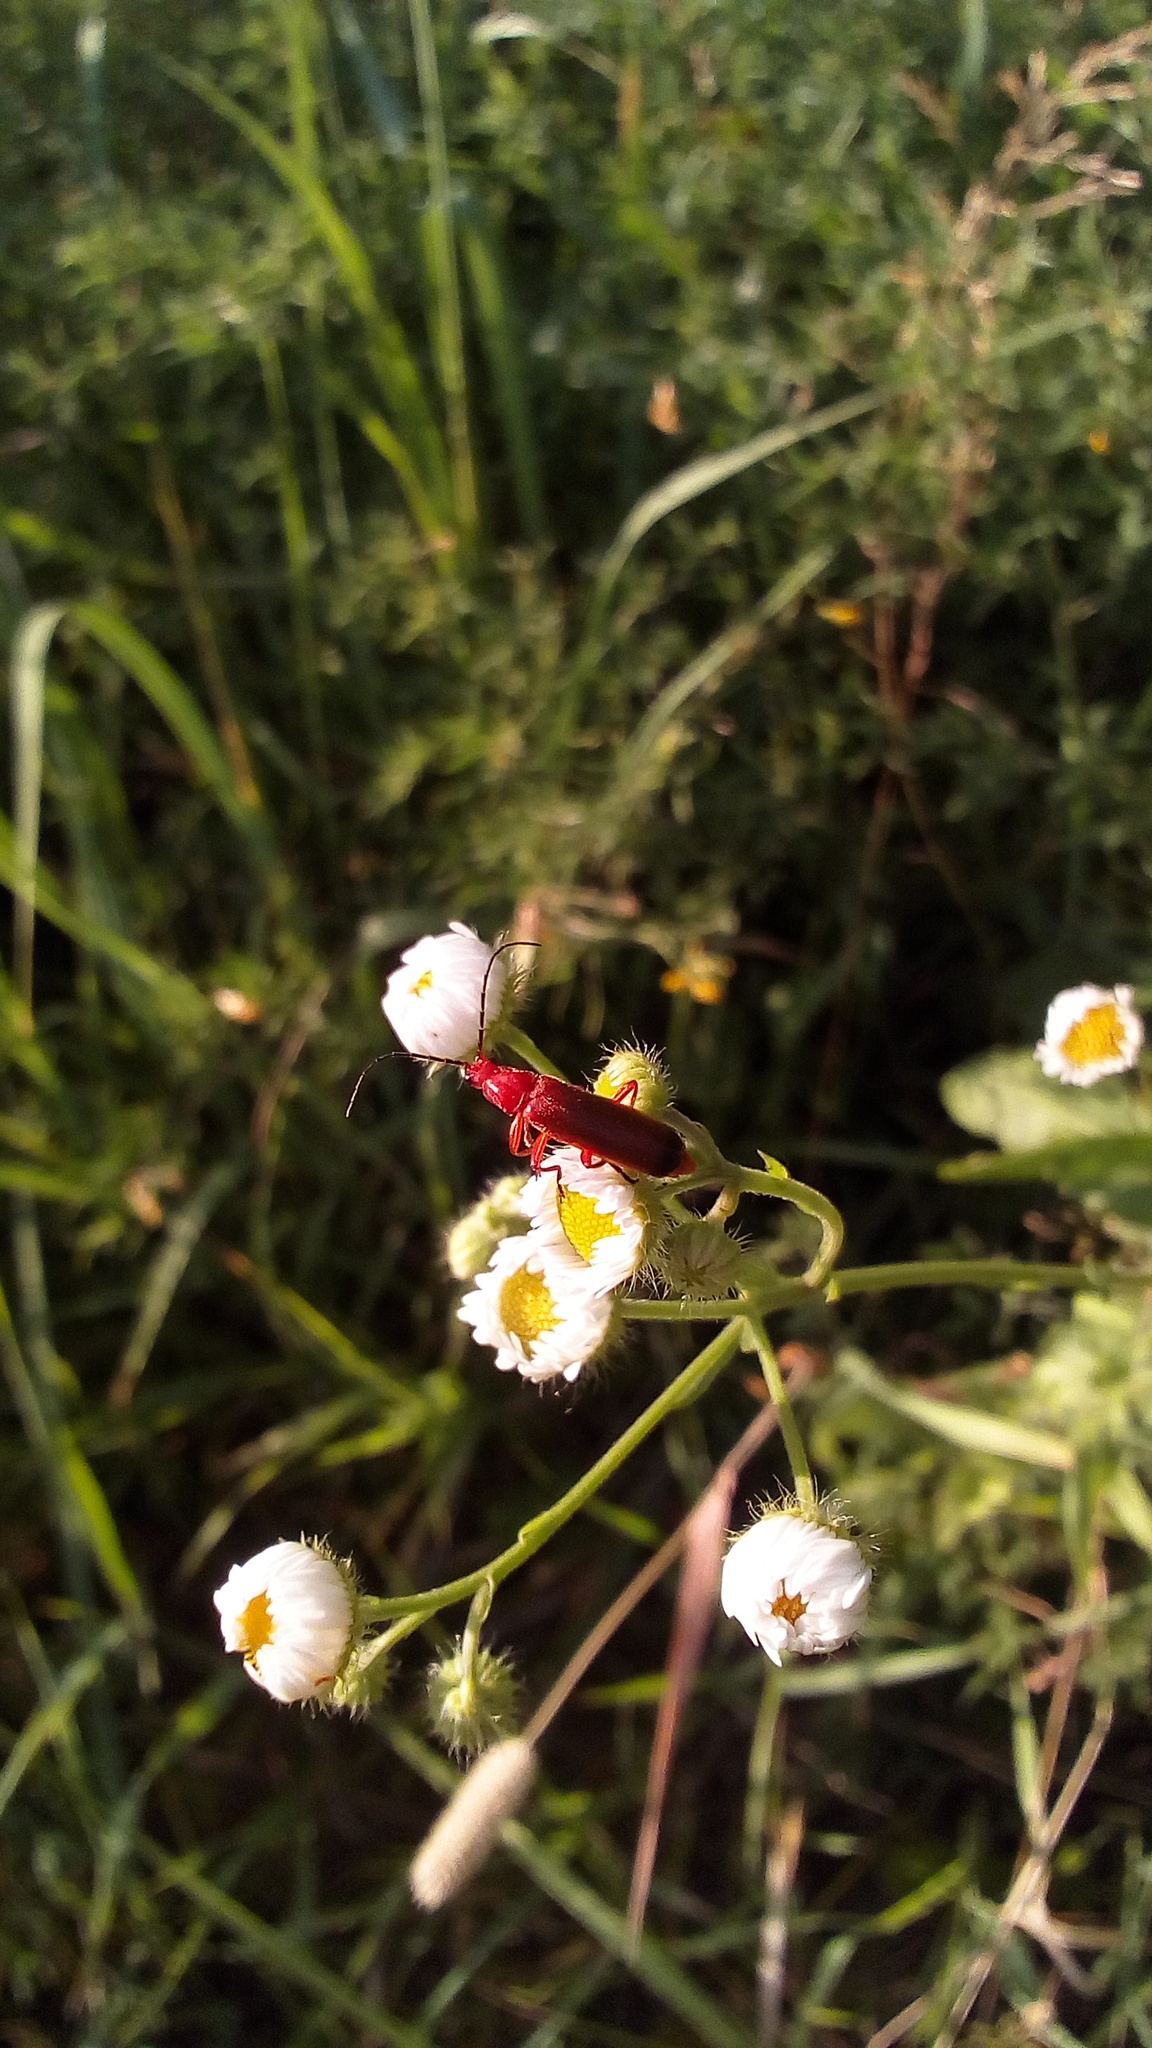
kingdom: Animalia
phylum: Arthropoda
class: Insecta
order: Coleoptera
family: Cantharidae
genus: Rhagonycha
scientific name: Rhagonycha fulva
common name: Common red soldier beetle
